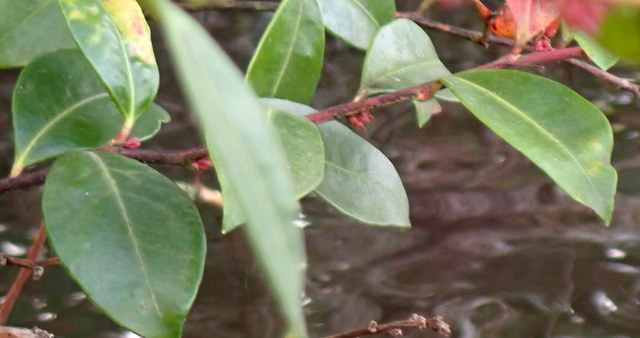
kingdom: Plantae
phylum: Tracheophyta
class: Magnoliopsida
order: Ericales
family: Ericaceae
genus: Lyonia
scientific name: Lyonia lucida
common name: Fetterbush
